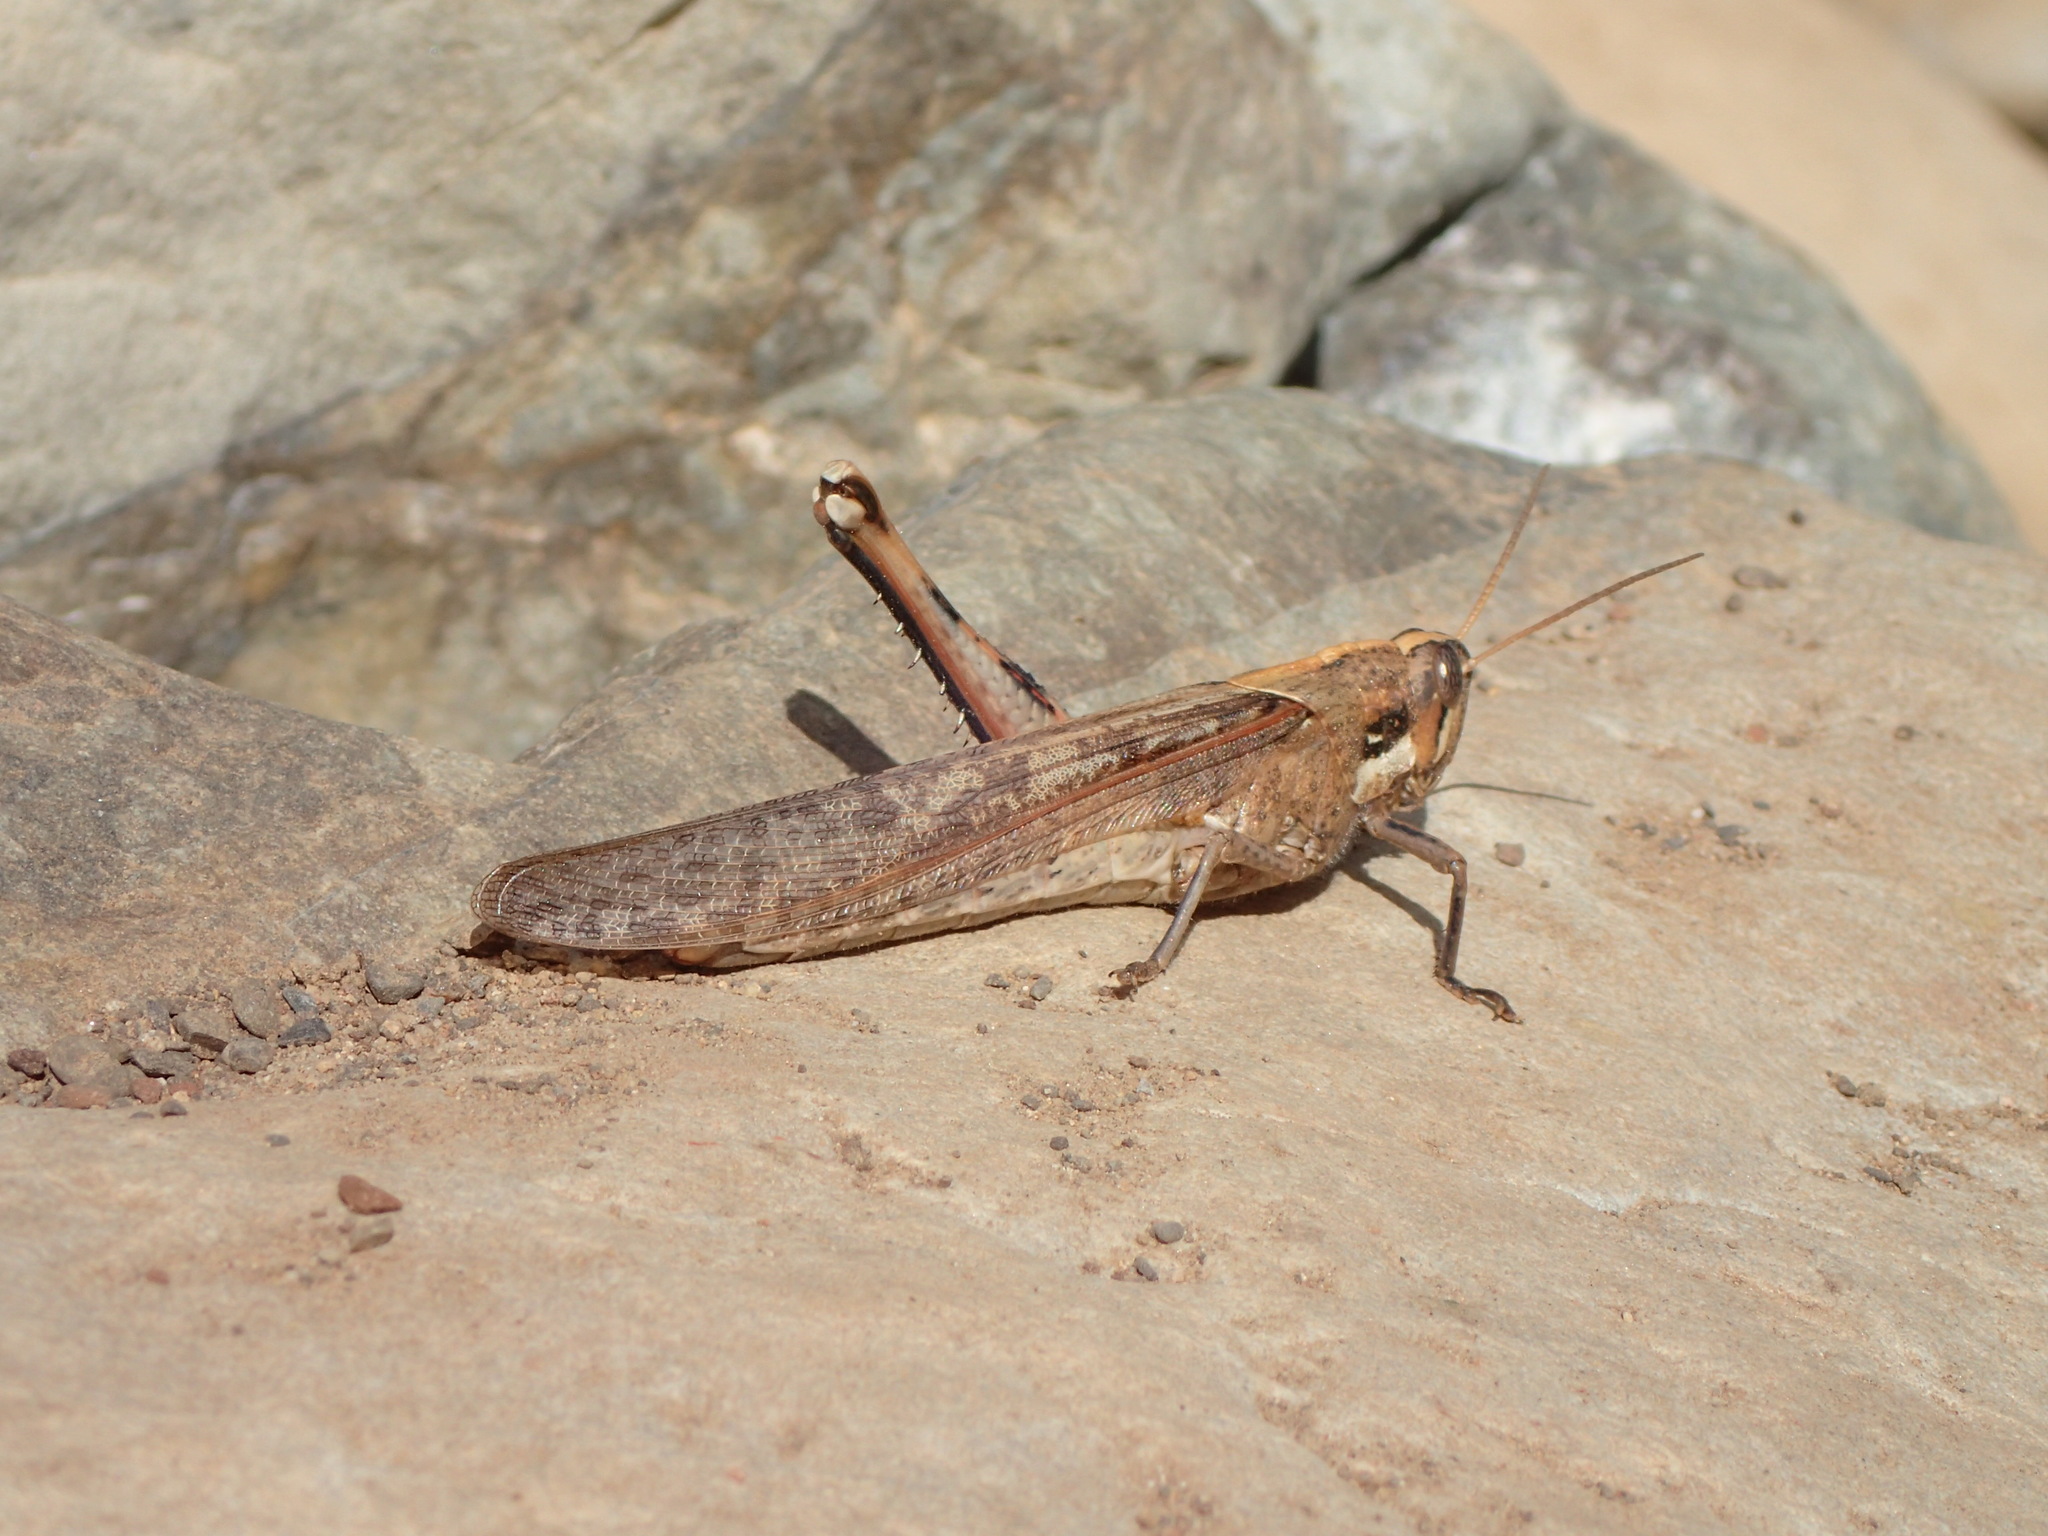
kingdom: Animalia
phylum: Arthropoda
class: Insecta
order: Orthoptera
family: Acrididae
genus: Schistocerca
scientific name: Schistocerca nitens
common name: Vagrant grasshopper
